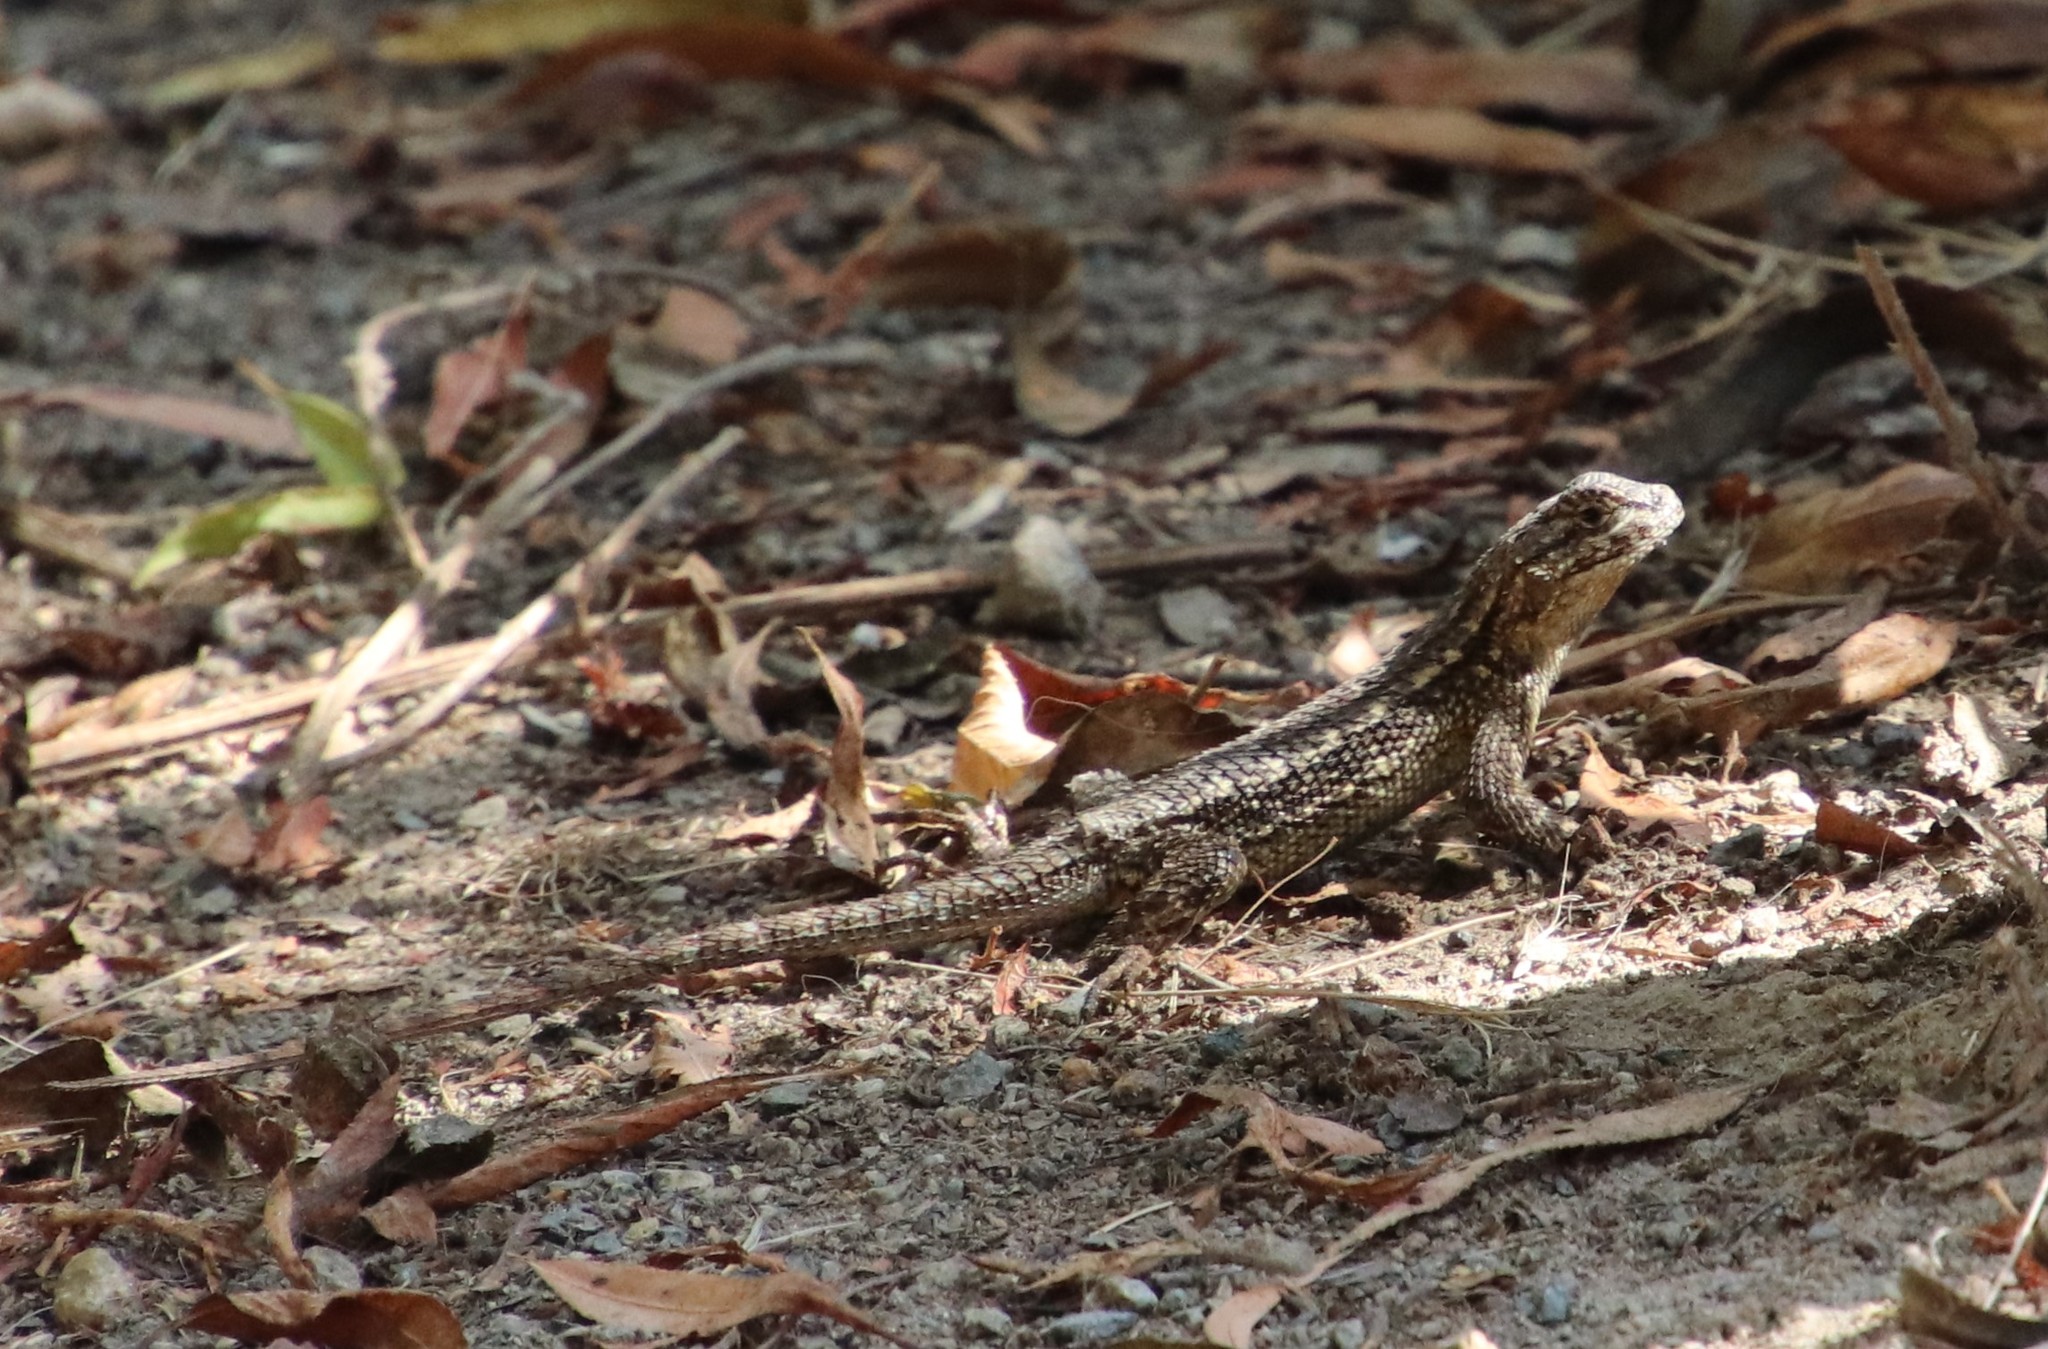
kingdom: Animalia
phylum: Chordata
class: Squamata
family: Phrynosomatidae
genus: Sceloporus
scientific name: Sceloporus occidentalis
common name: Western fence lizard
